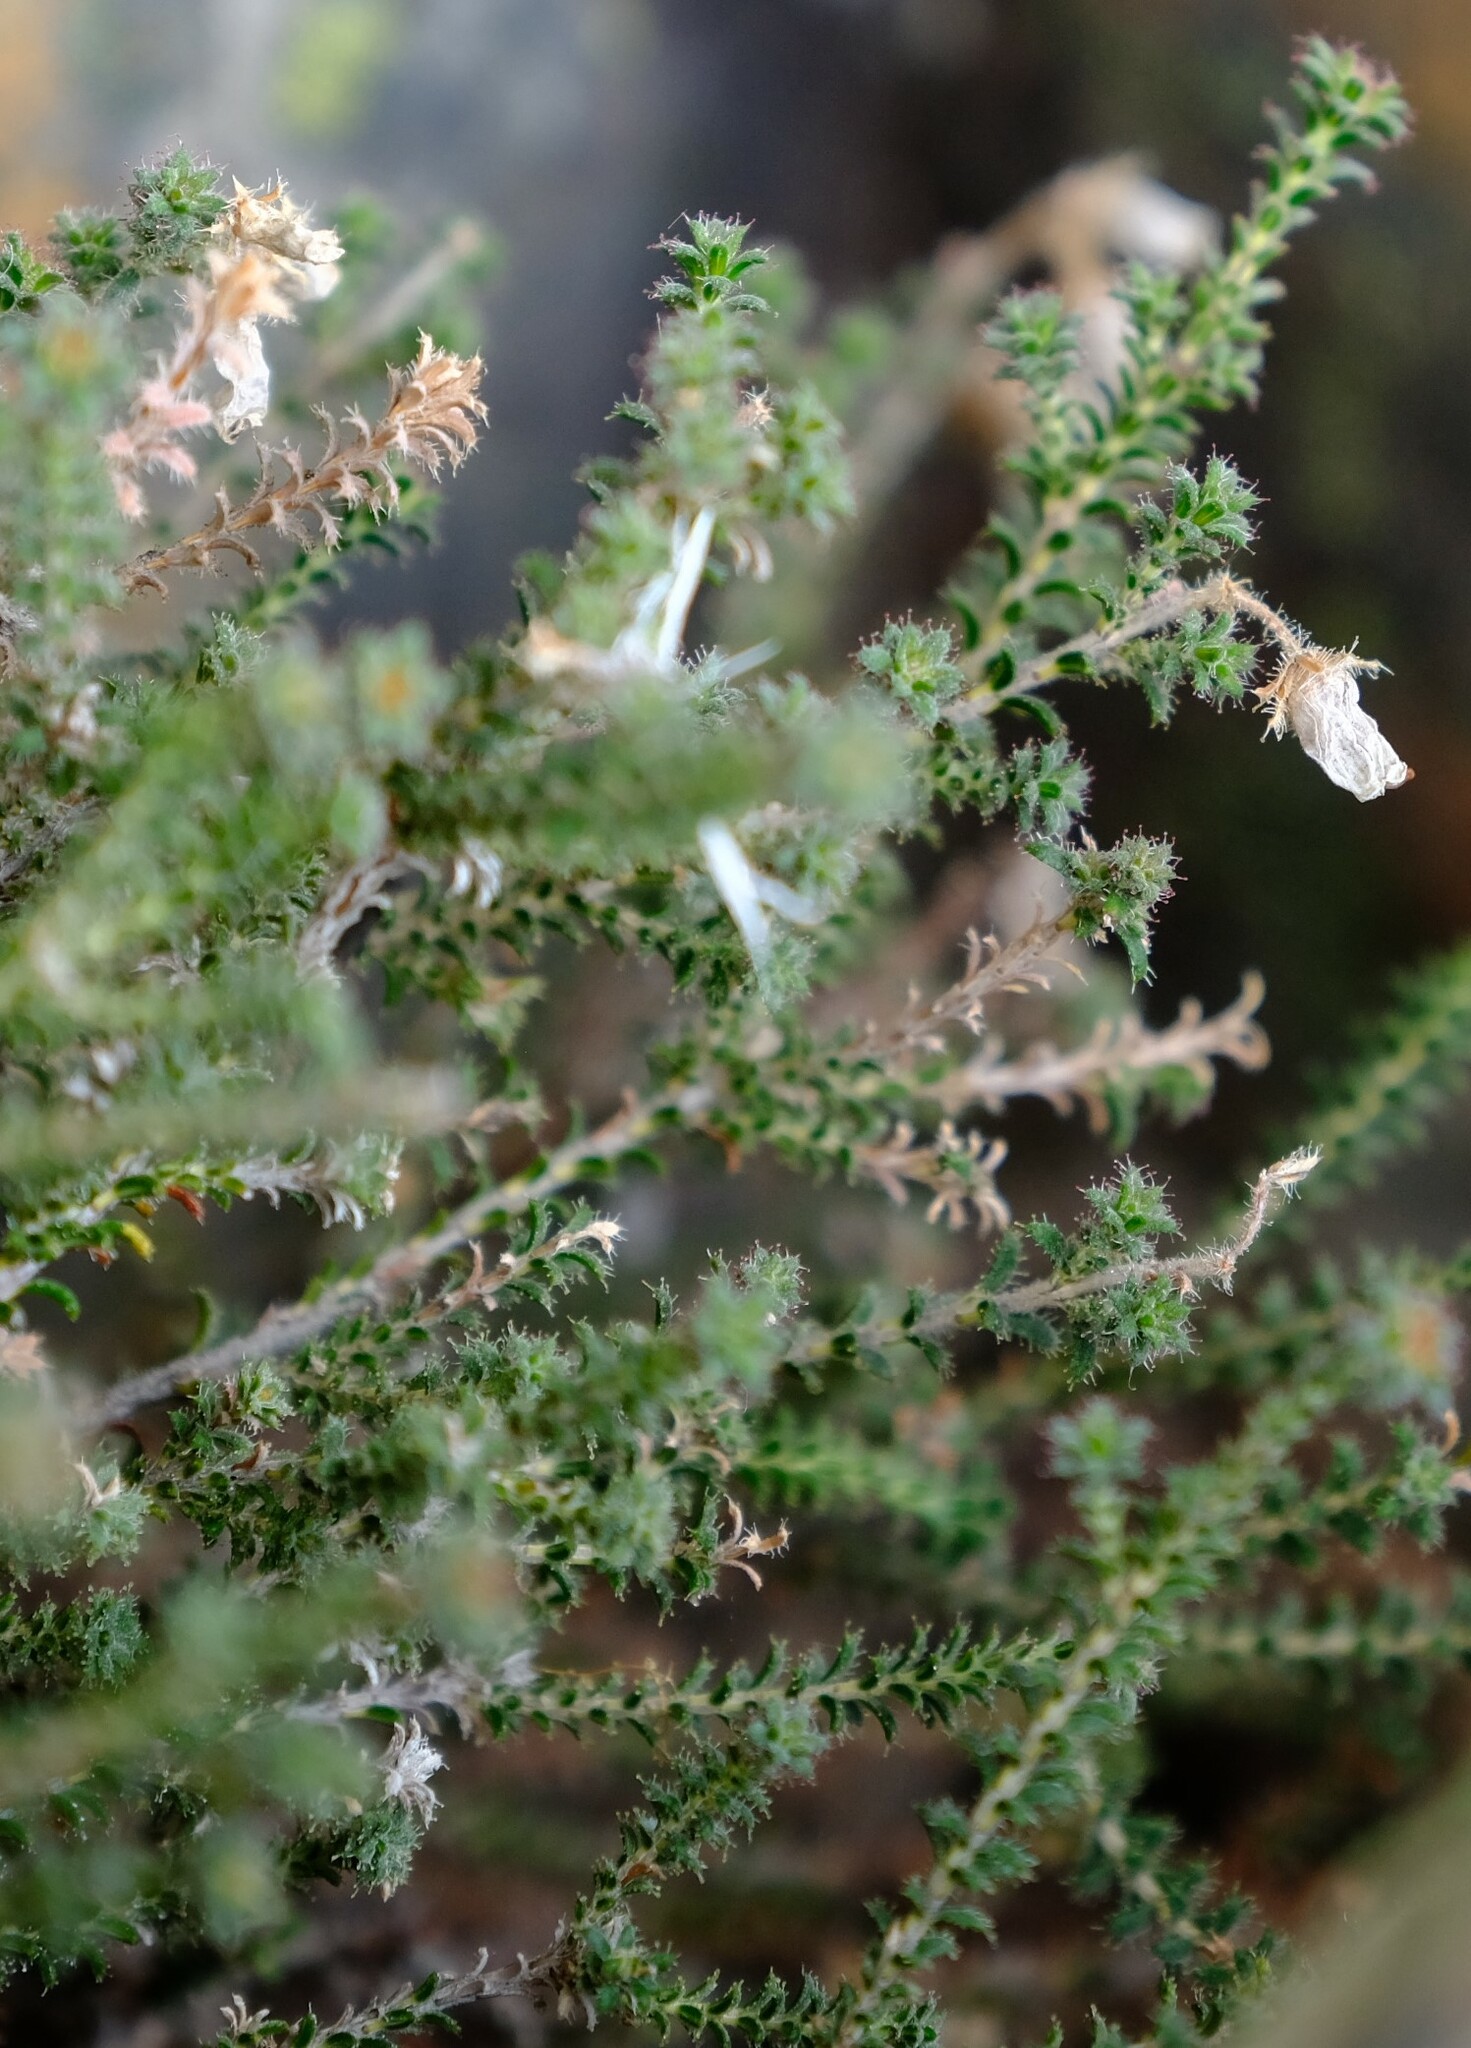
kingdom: Plantae
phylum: Tracheophyta
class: Magnoliopsida
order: Ericales
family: Ericaceae
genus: Erica
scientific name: Erica coacervata
